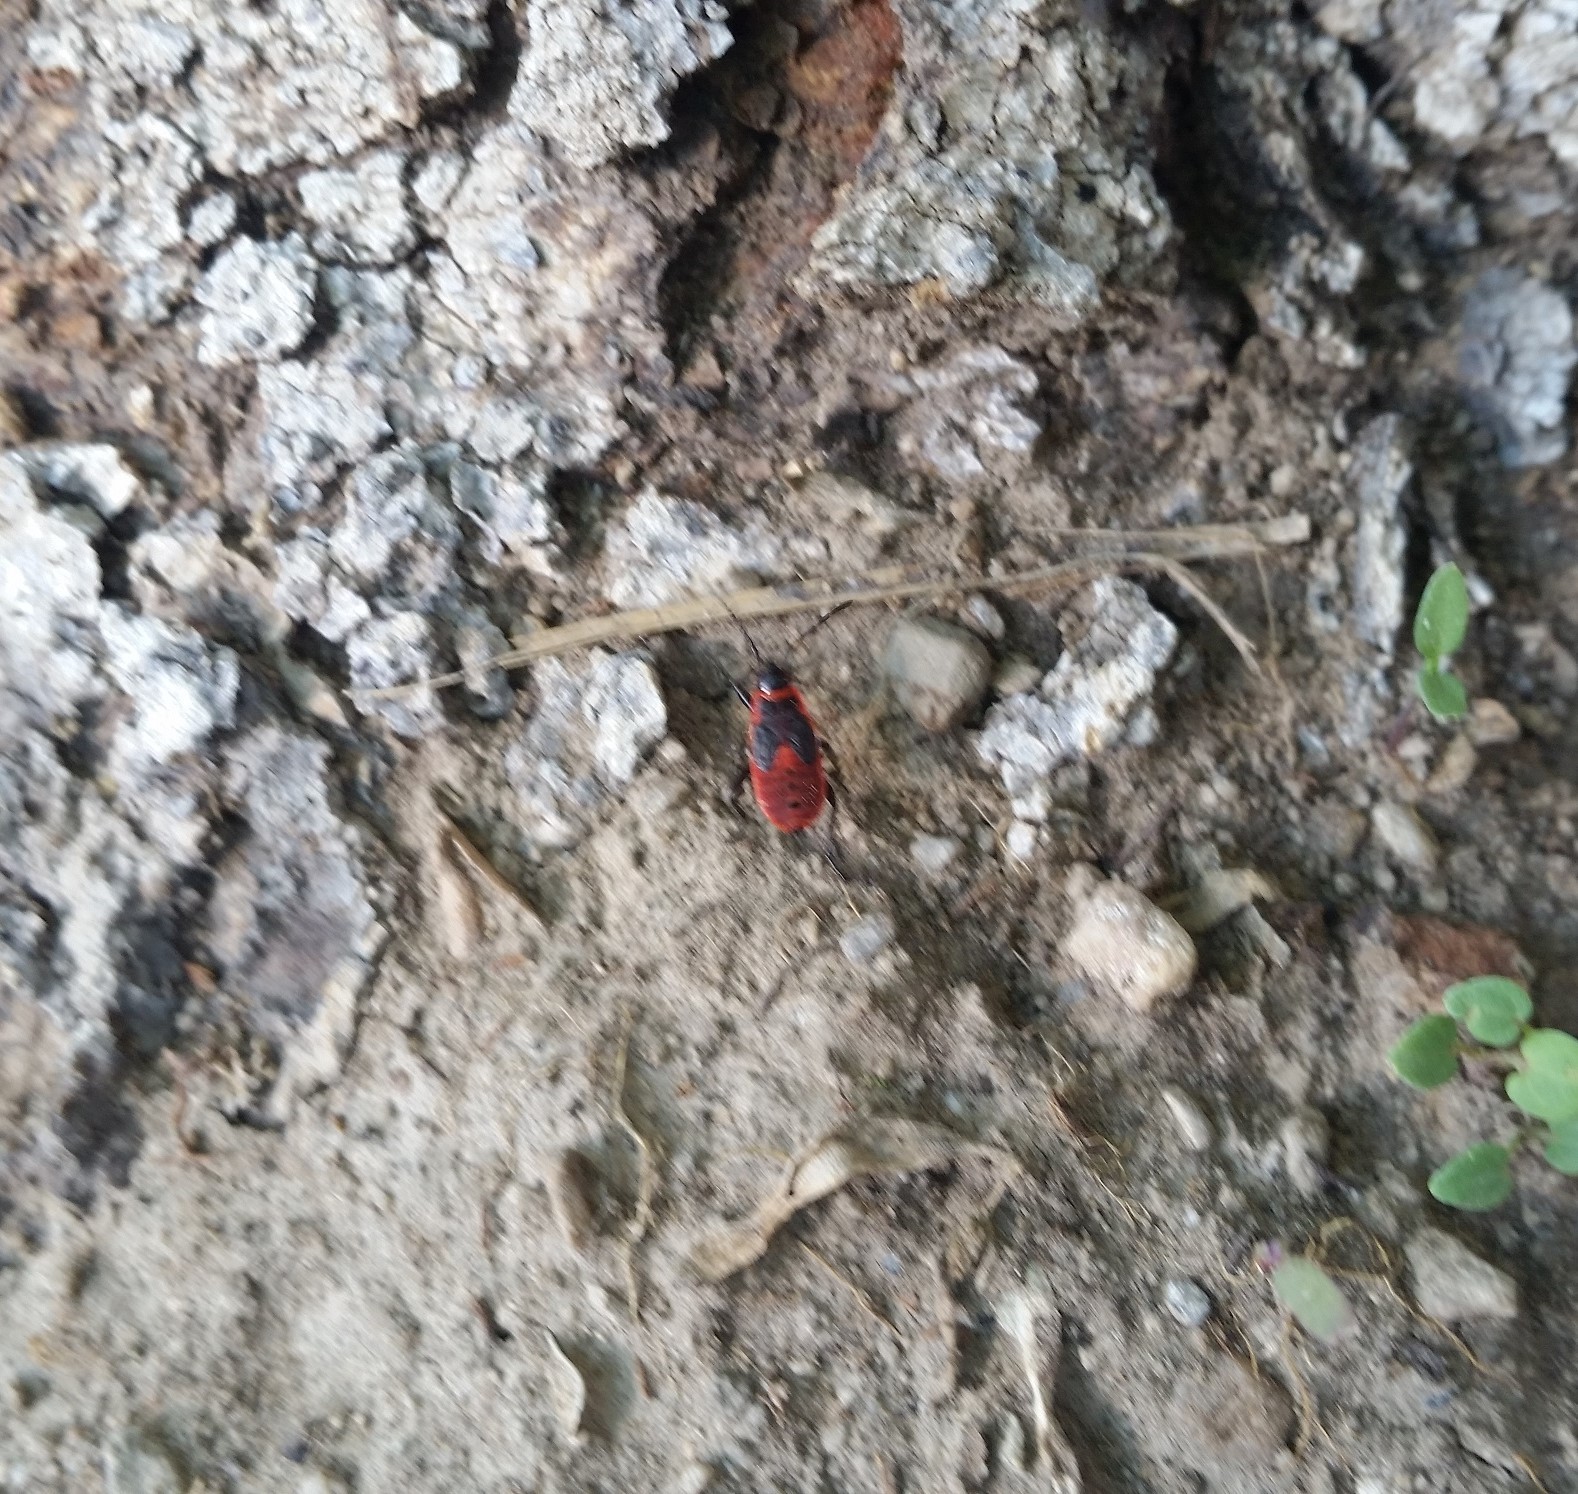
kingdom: Animalia
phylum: Arthropoda
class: Insecta
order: Hemiptera
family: Pyrrhocoridae
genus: Pyrrhocoris
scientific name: Pyrrhocoris apterus
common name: Firebug
